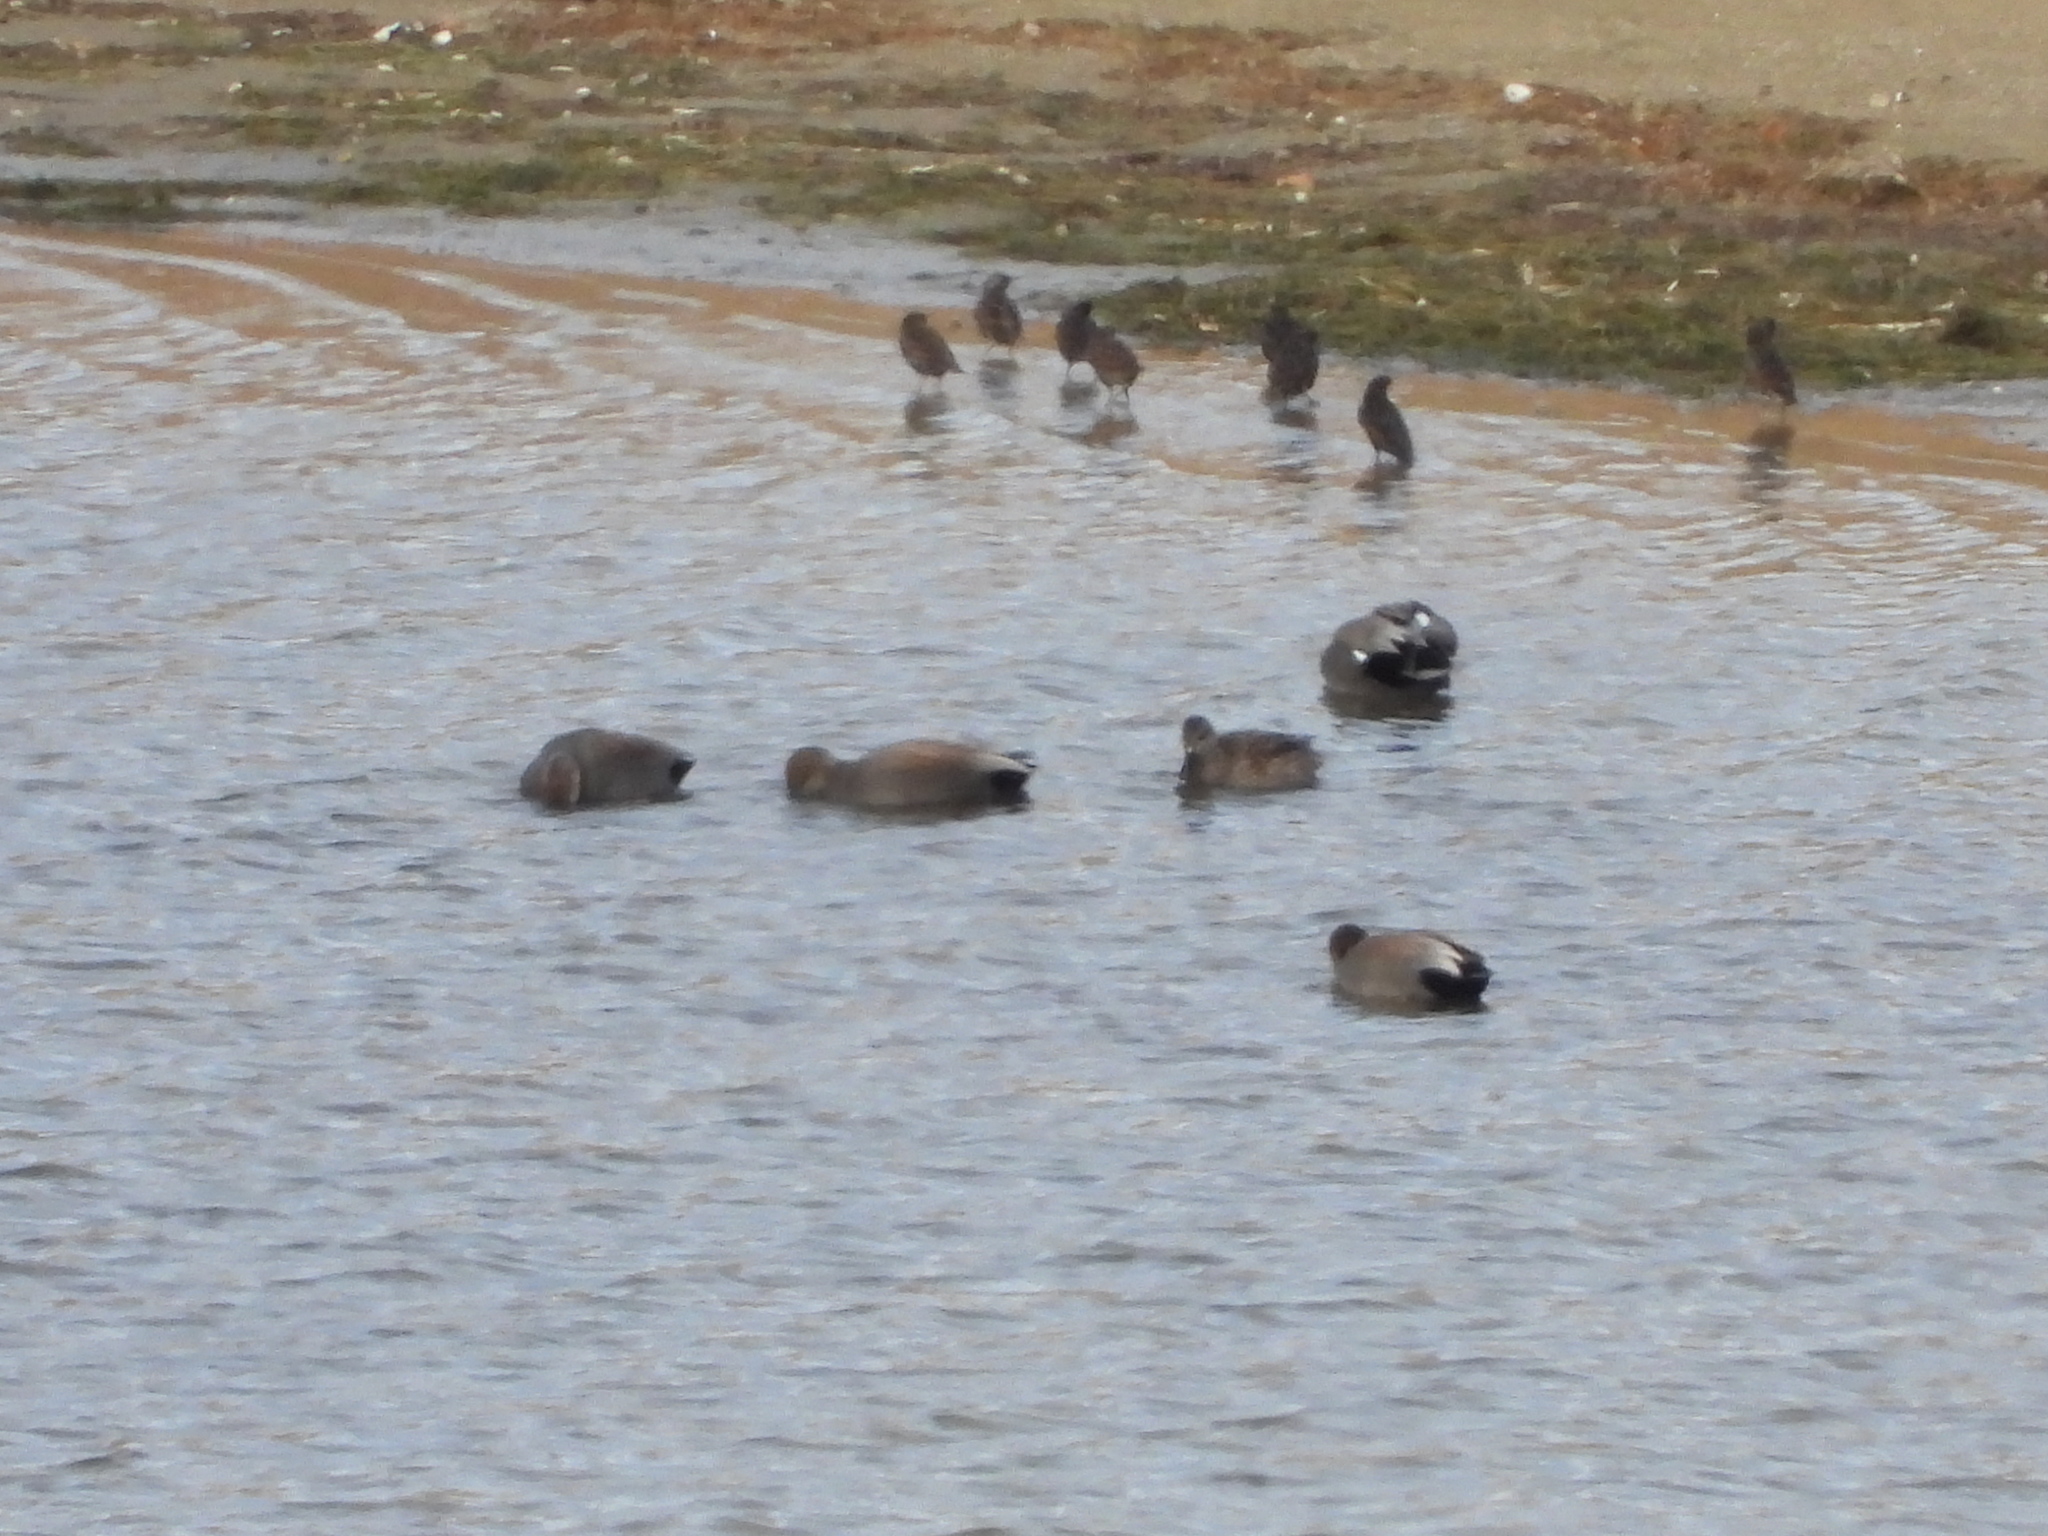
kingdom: Animalia
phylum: Chordata
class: Aves
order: Passeriformes
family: Sturnidae
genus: Sturnus
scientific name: Sturnus vulgaris
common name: Common starling
